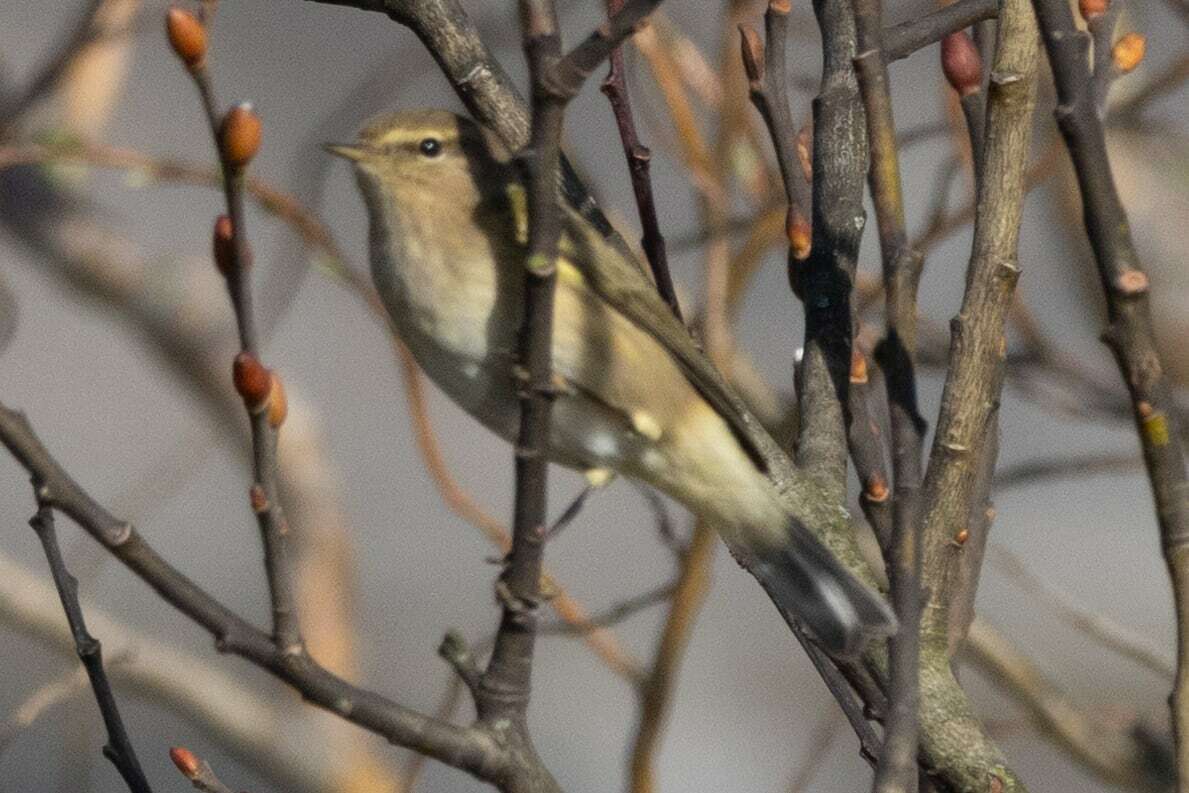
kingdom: Animalia
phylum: Chordata
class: Aves
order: Passeriformes
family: Phylloscopidae
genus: Phylloscopus
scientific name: Phylloscopus collybita
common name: Common chiffchaff
